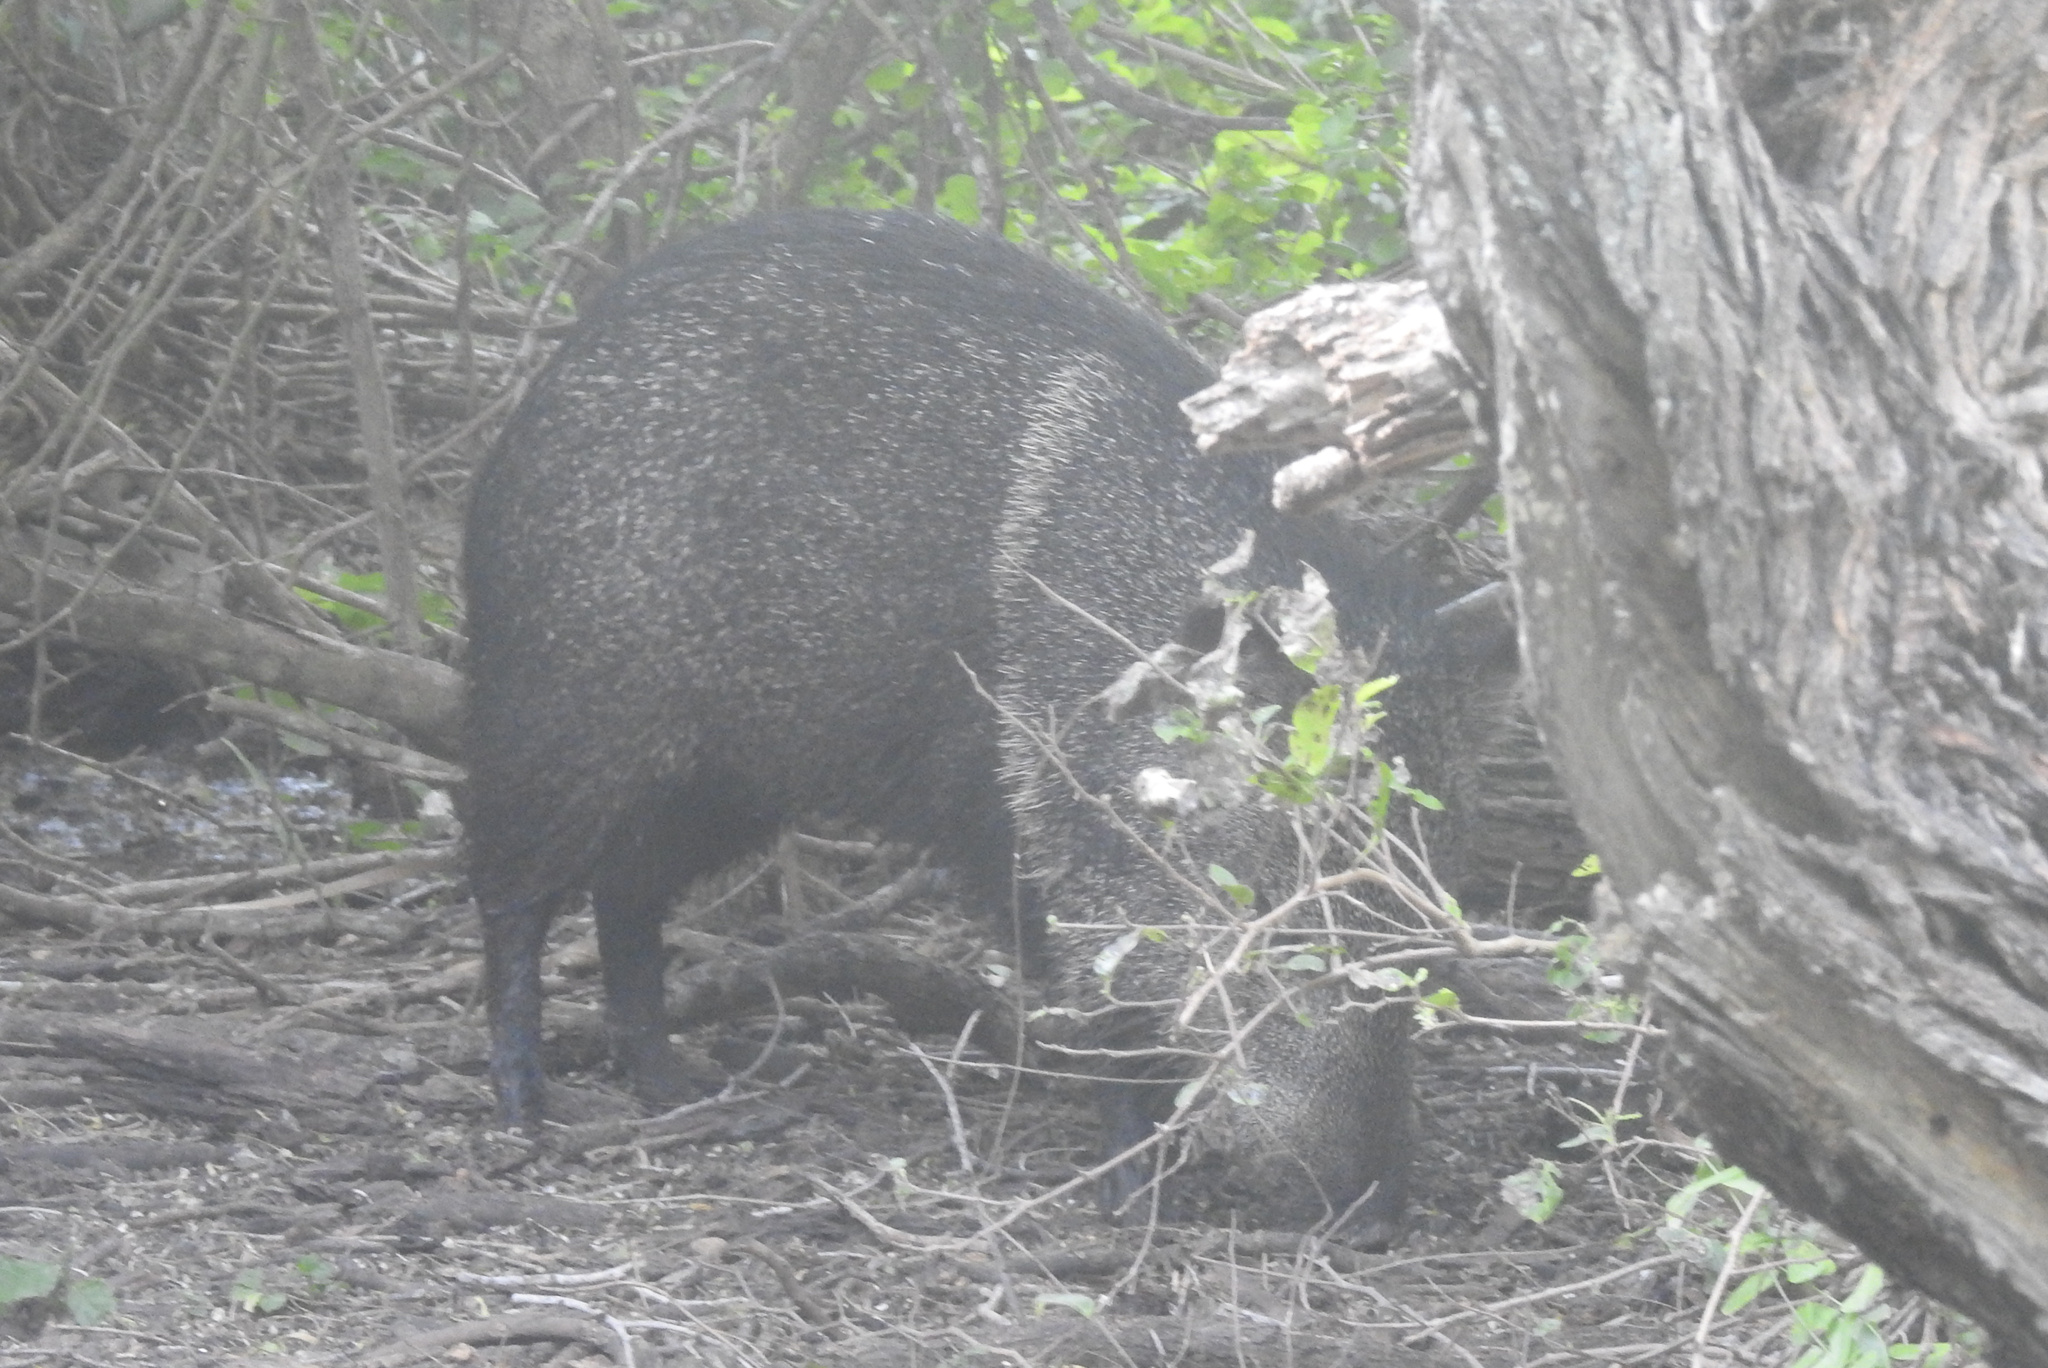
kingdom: Animalia
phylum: Chordata
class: Mammalia
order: Artiodactyla
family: Tayassuidae
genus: Pecari
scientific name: Pecari tajacu
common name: Collared peccary
